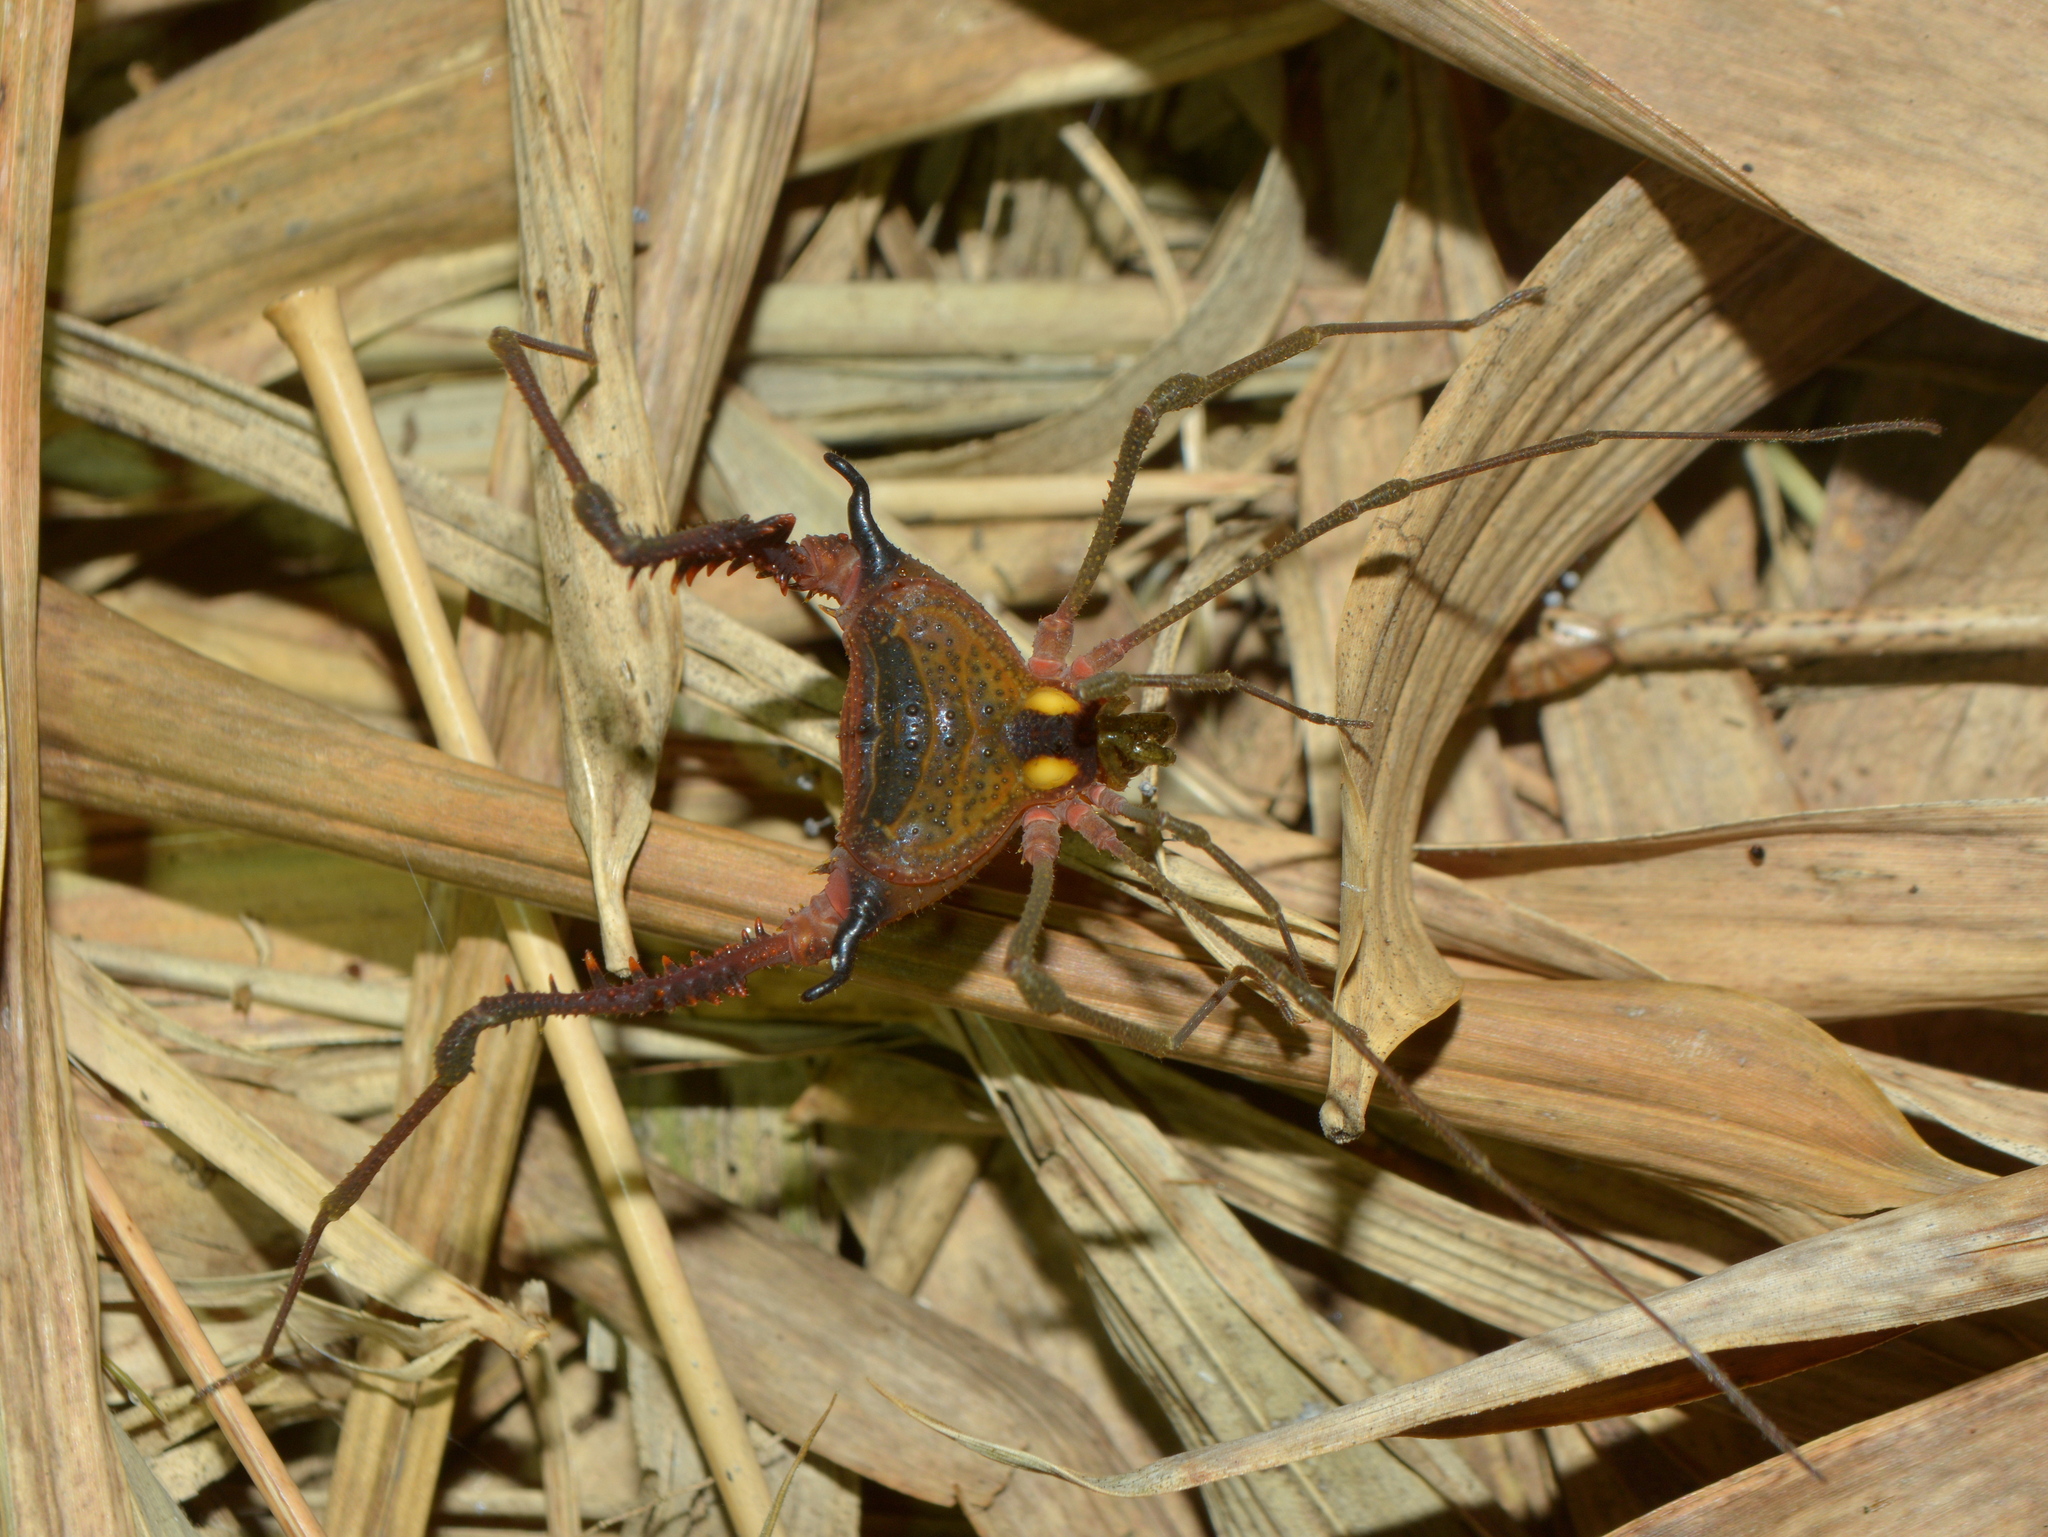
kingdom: Animalia
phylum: Arthropoda
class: Arachnida
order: Opiliones
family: Gonyleptidae
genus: Parampheres
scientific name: Parampheres pectinatus
